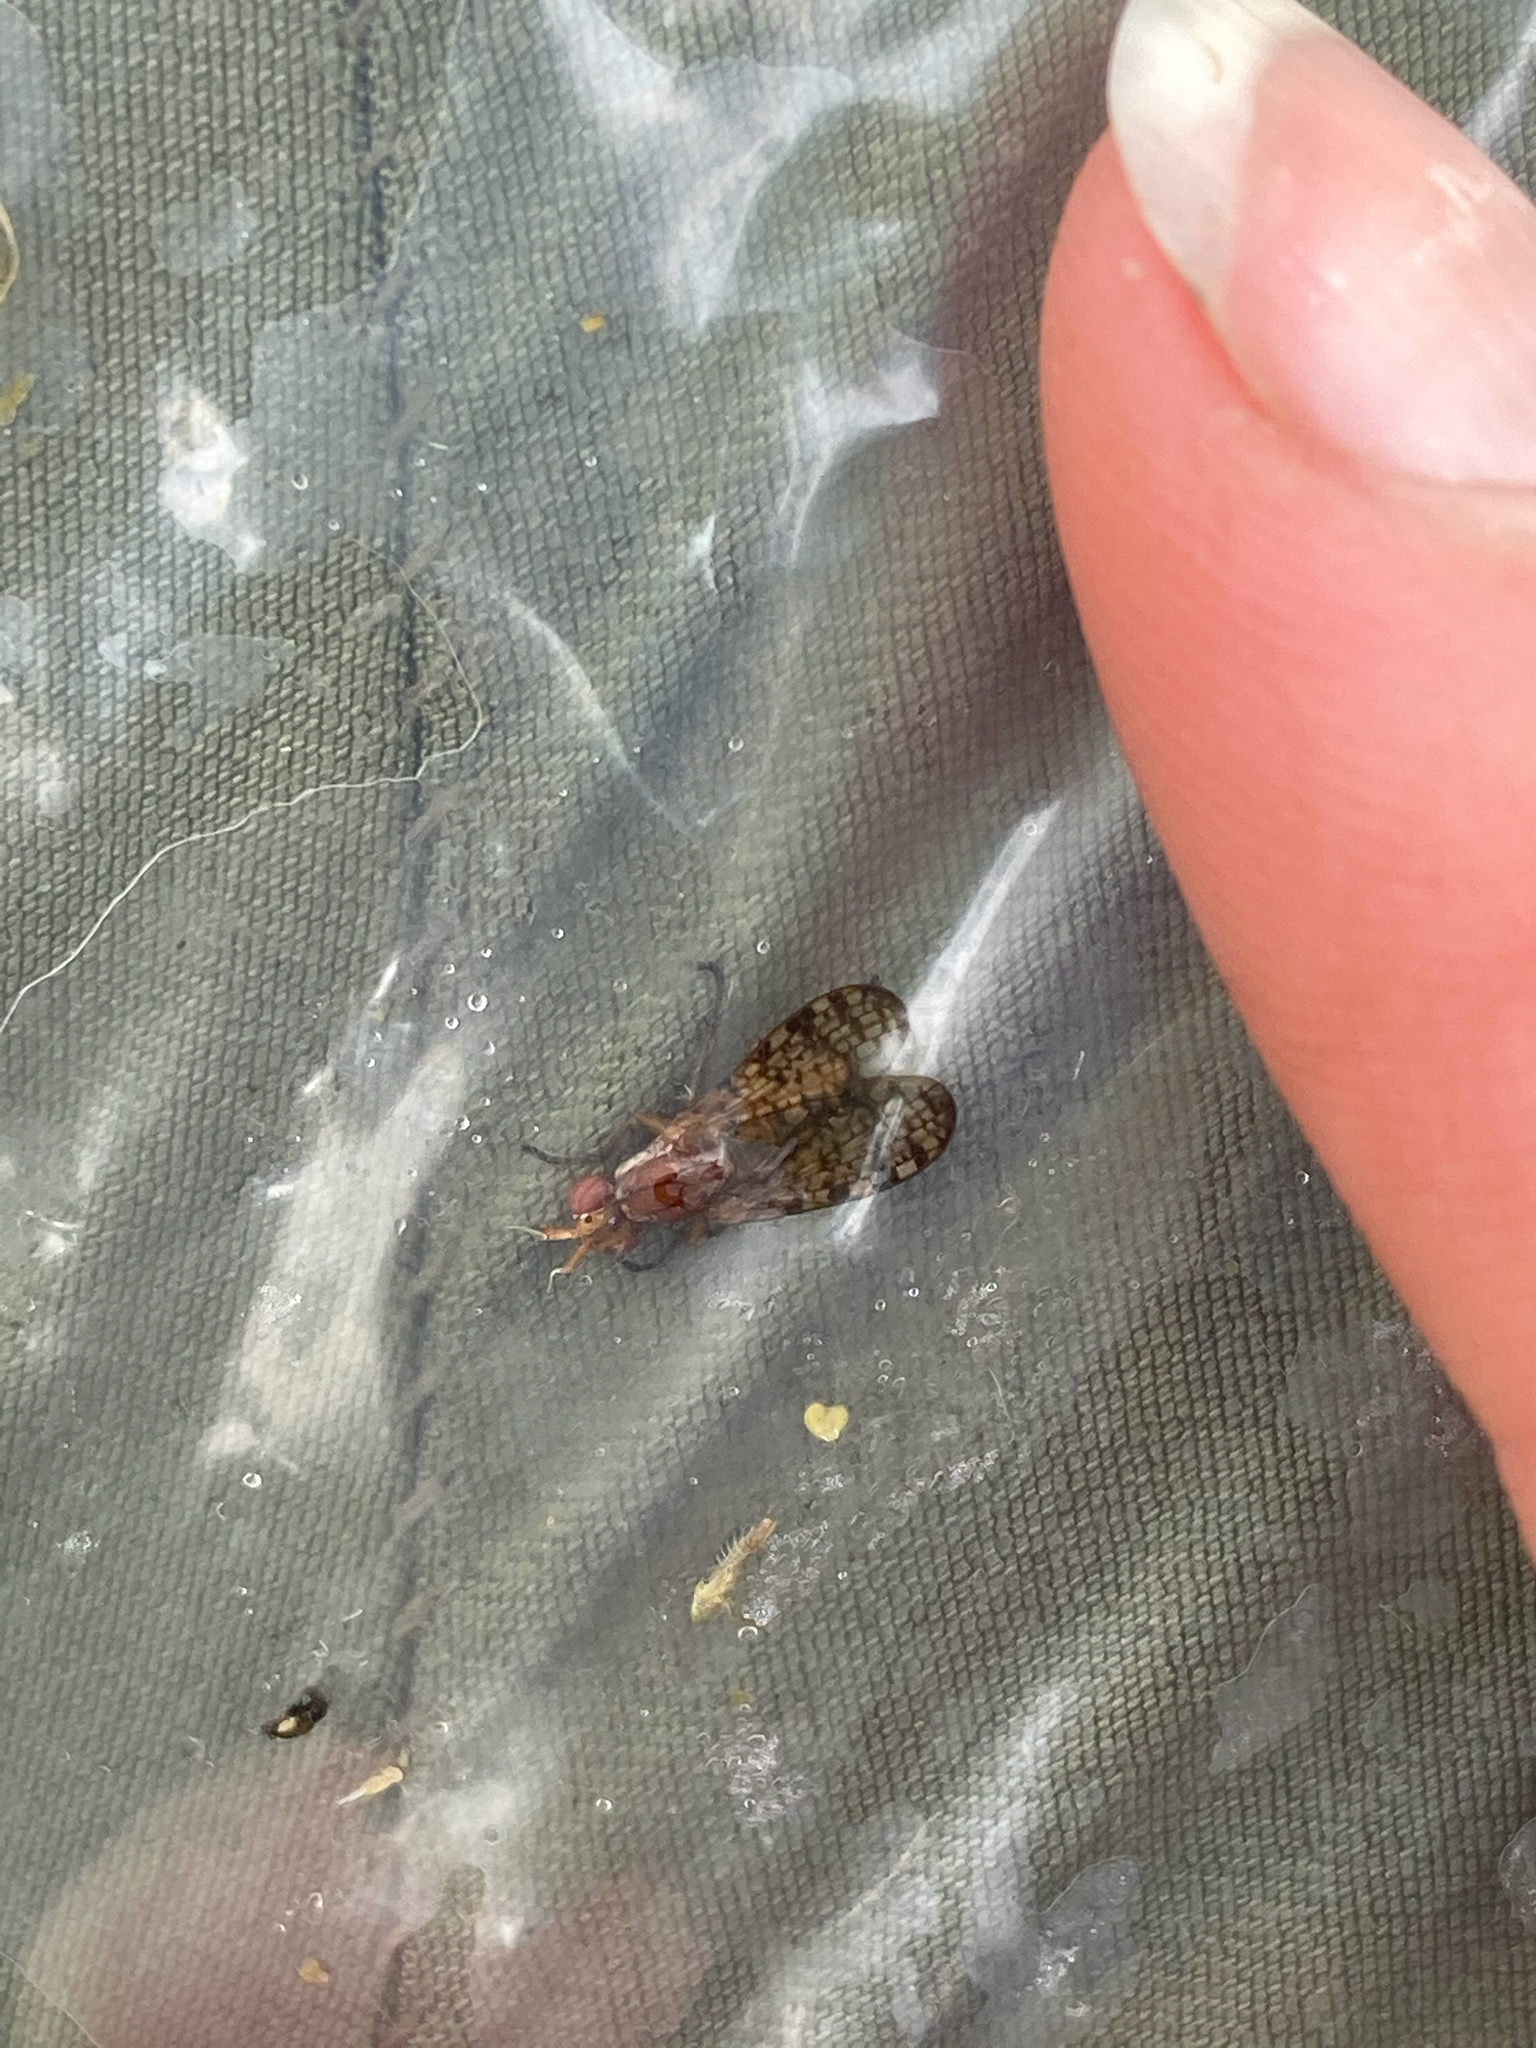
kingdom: Animalia
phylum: Arthropoda
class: Insecta
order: Diptera
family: Sciomyzidae
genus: Euthycera
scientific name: Euthycera flavescens
